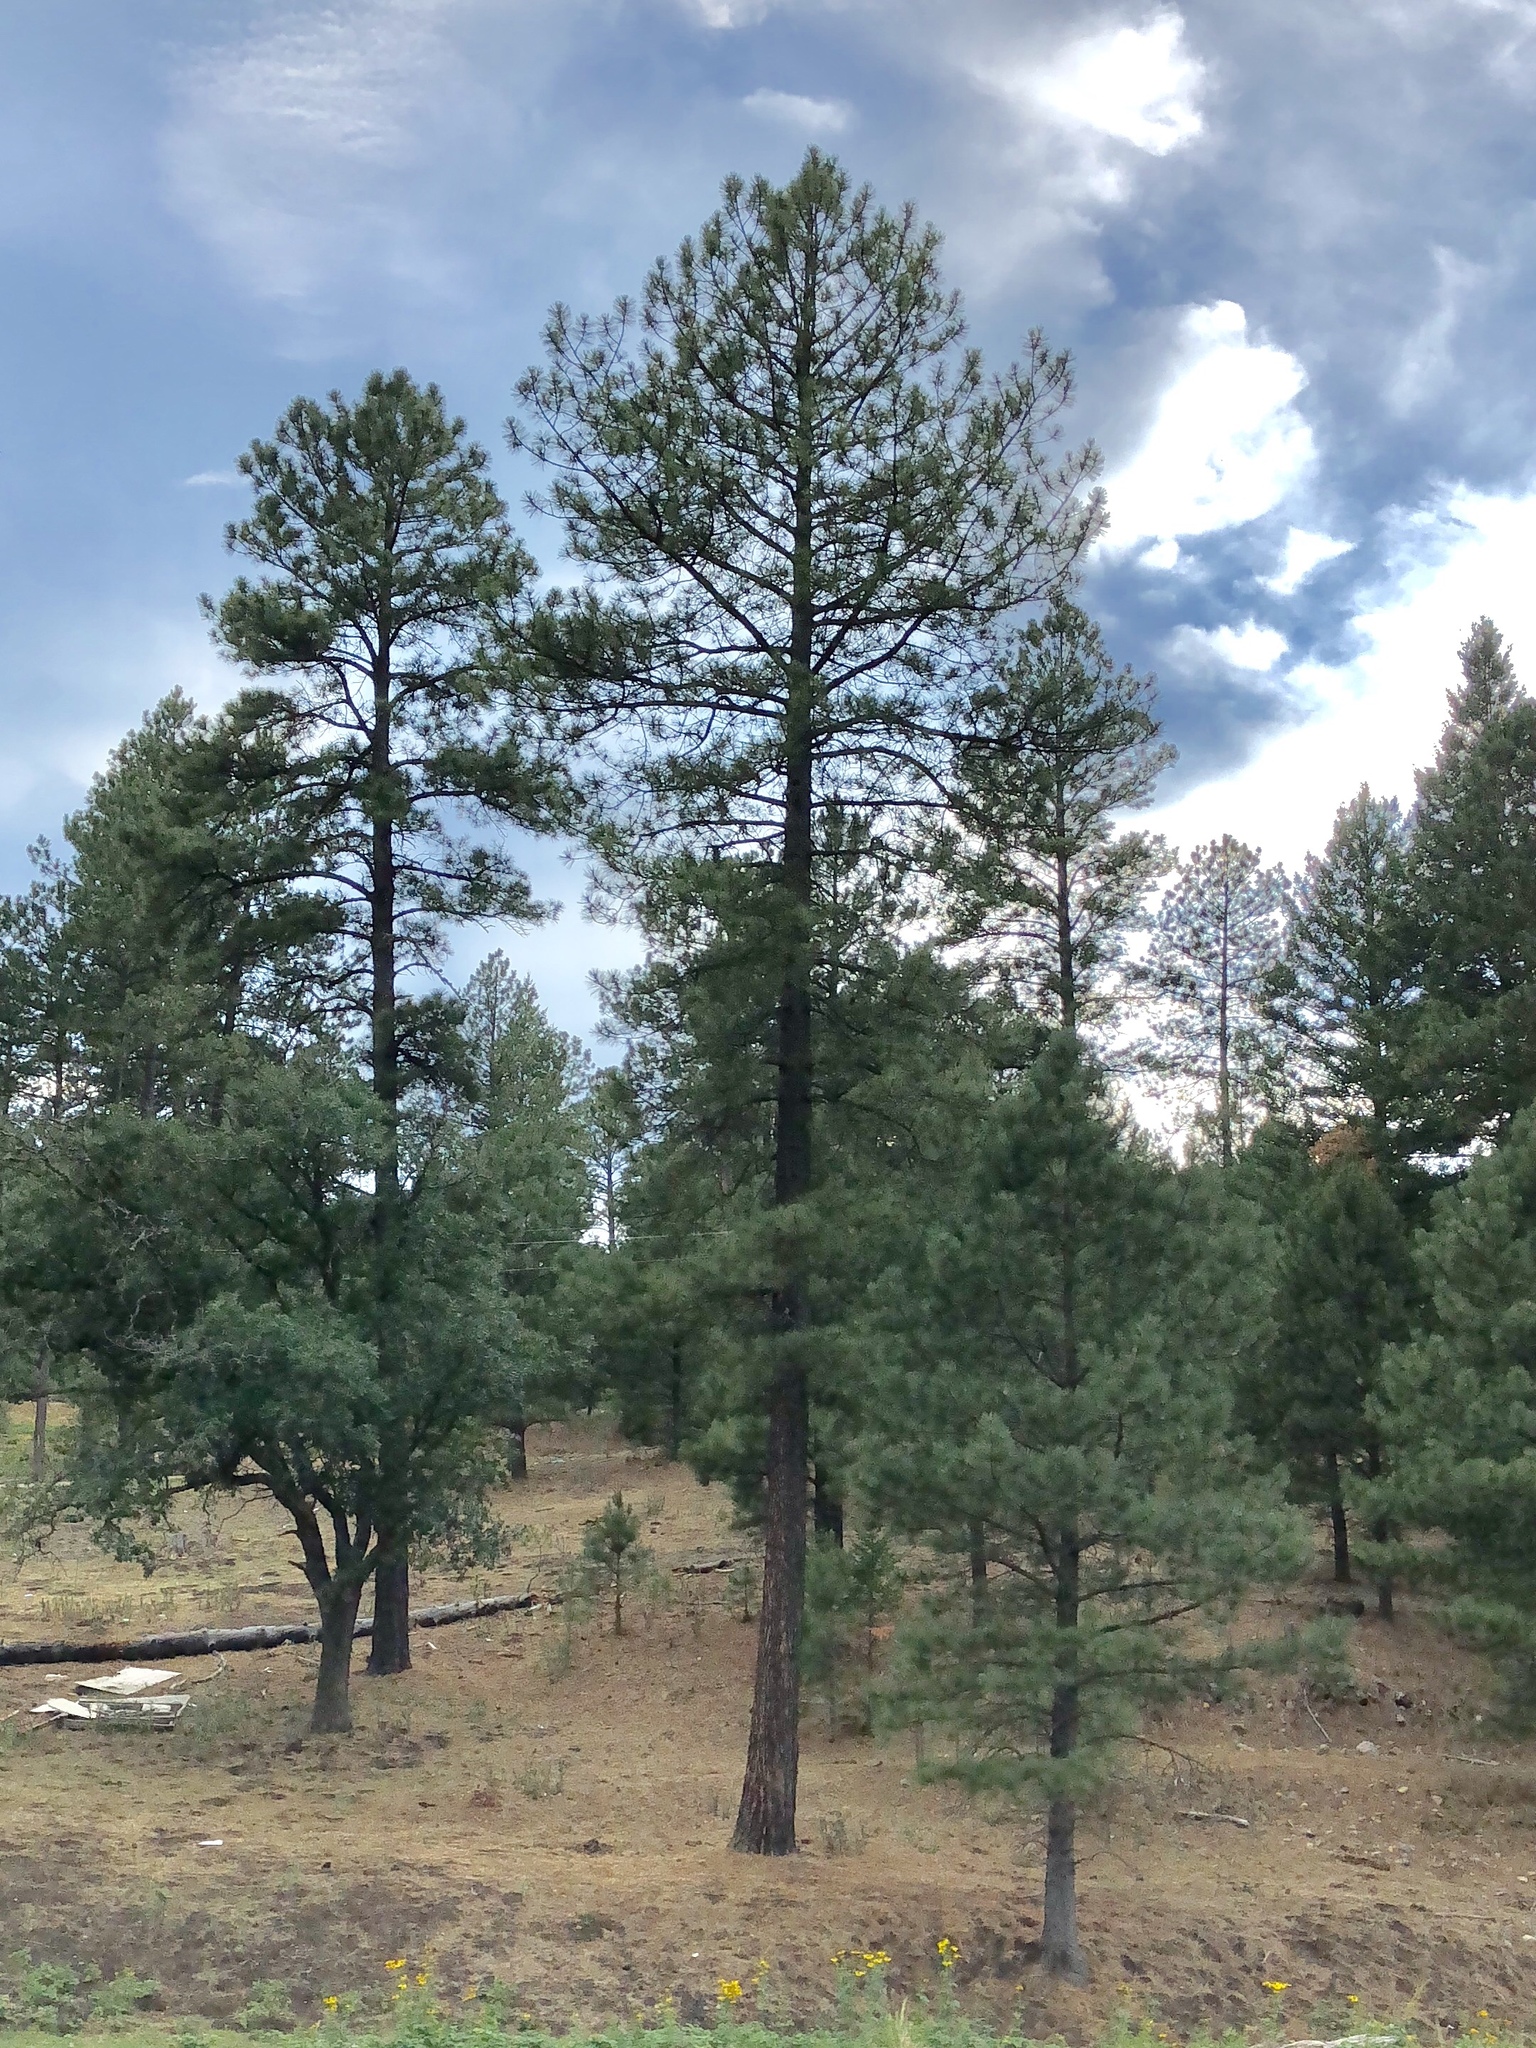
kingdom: Plantae
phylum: Tracheophyta
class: Pinopsida
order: Pinales
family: Pinaceae
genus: Pinus
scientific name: Pinus ponderosa
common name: Western yellow-pine
